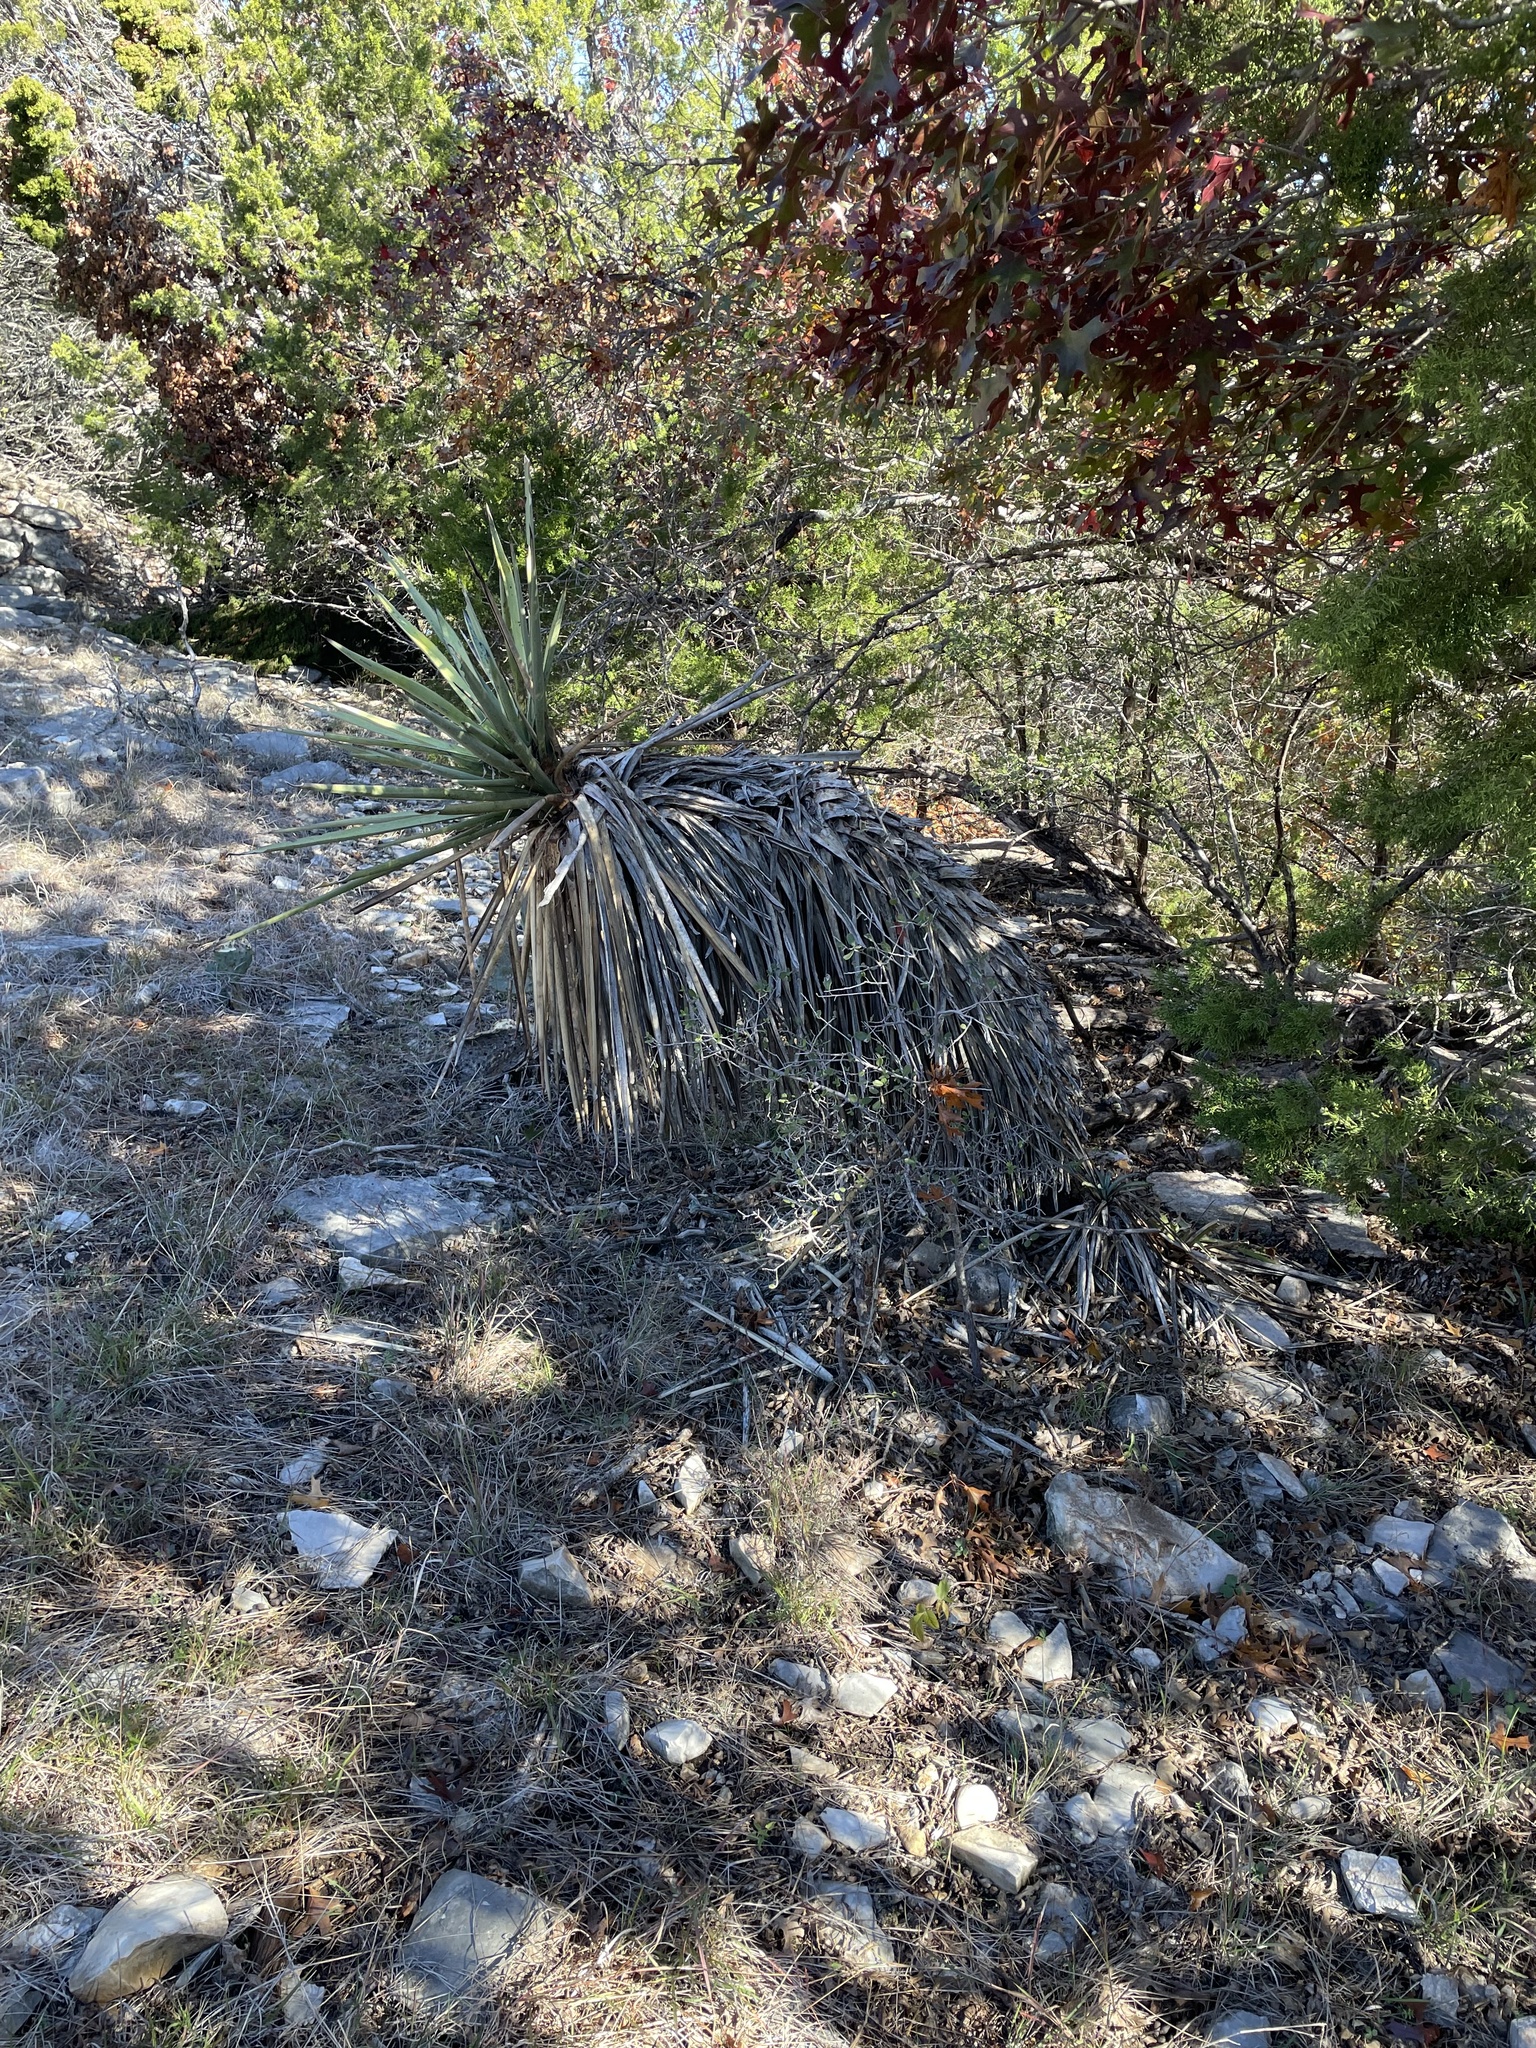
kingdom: Plantae
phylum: Tracheophyta
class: Liliopsida
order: Asparagales
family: Asparagaceae
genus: Yucca
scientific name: Yucca treculiana
